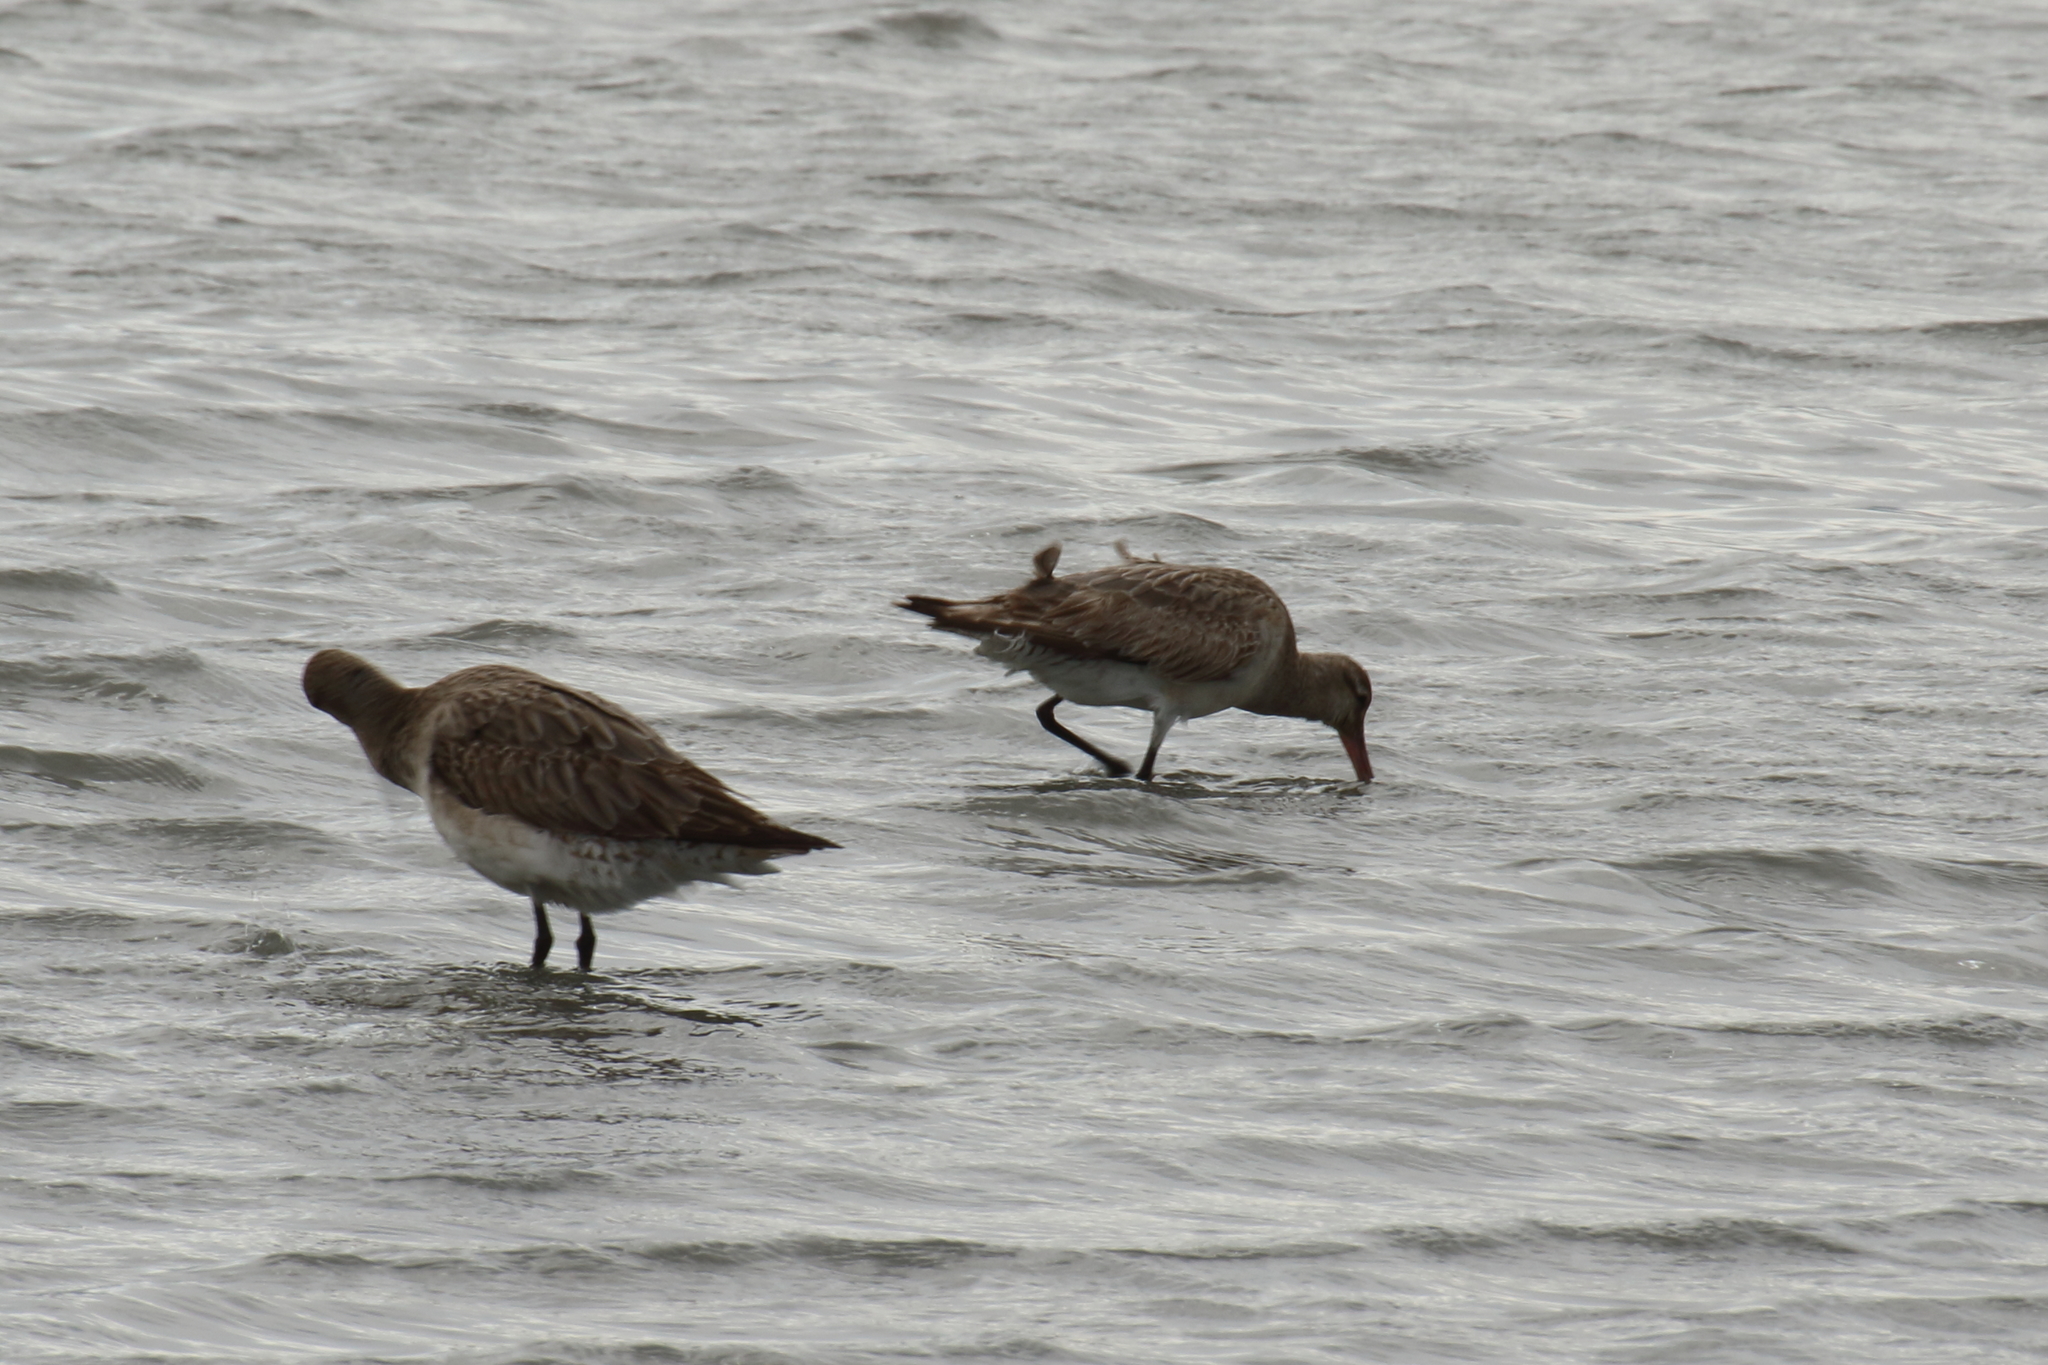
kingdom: Animalia
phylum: Chordata
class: Aves
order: Charadriiformes
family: Scolopacidae
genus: Limosa
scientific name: Limosa lapponica
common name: Bar-tailed godwit
